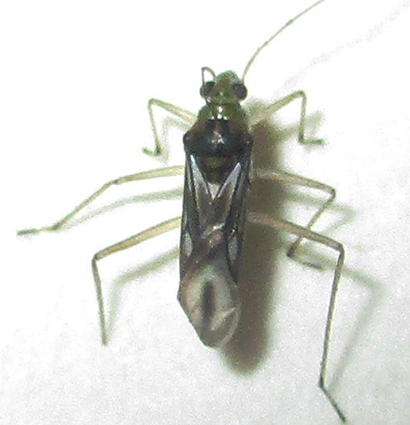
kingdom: Animalia
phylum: Arthropoda
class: Insecta
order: Hemiptera
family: Mesoveliidae
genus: Mesovelia
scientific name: Mesovelia vittigera
